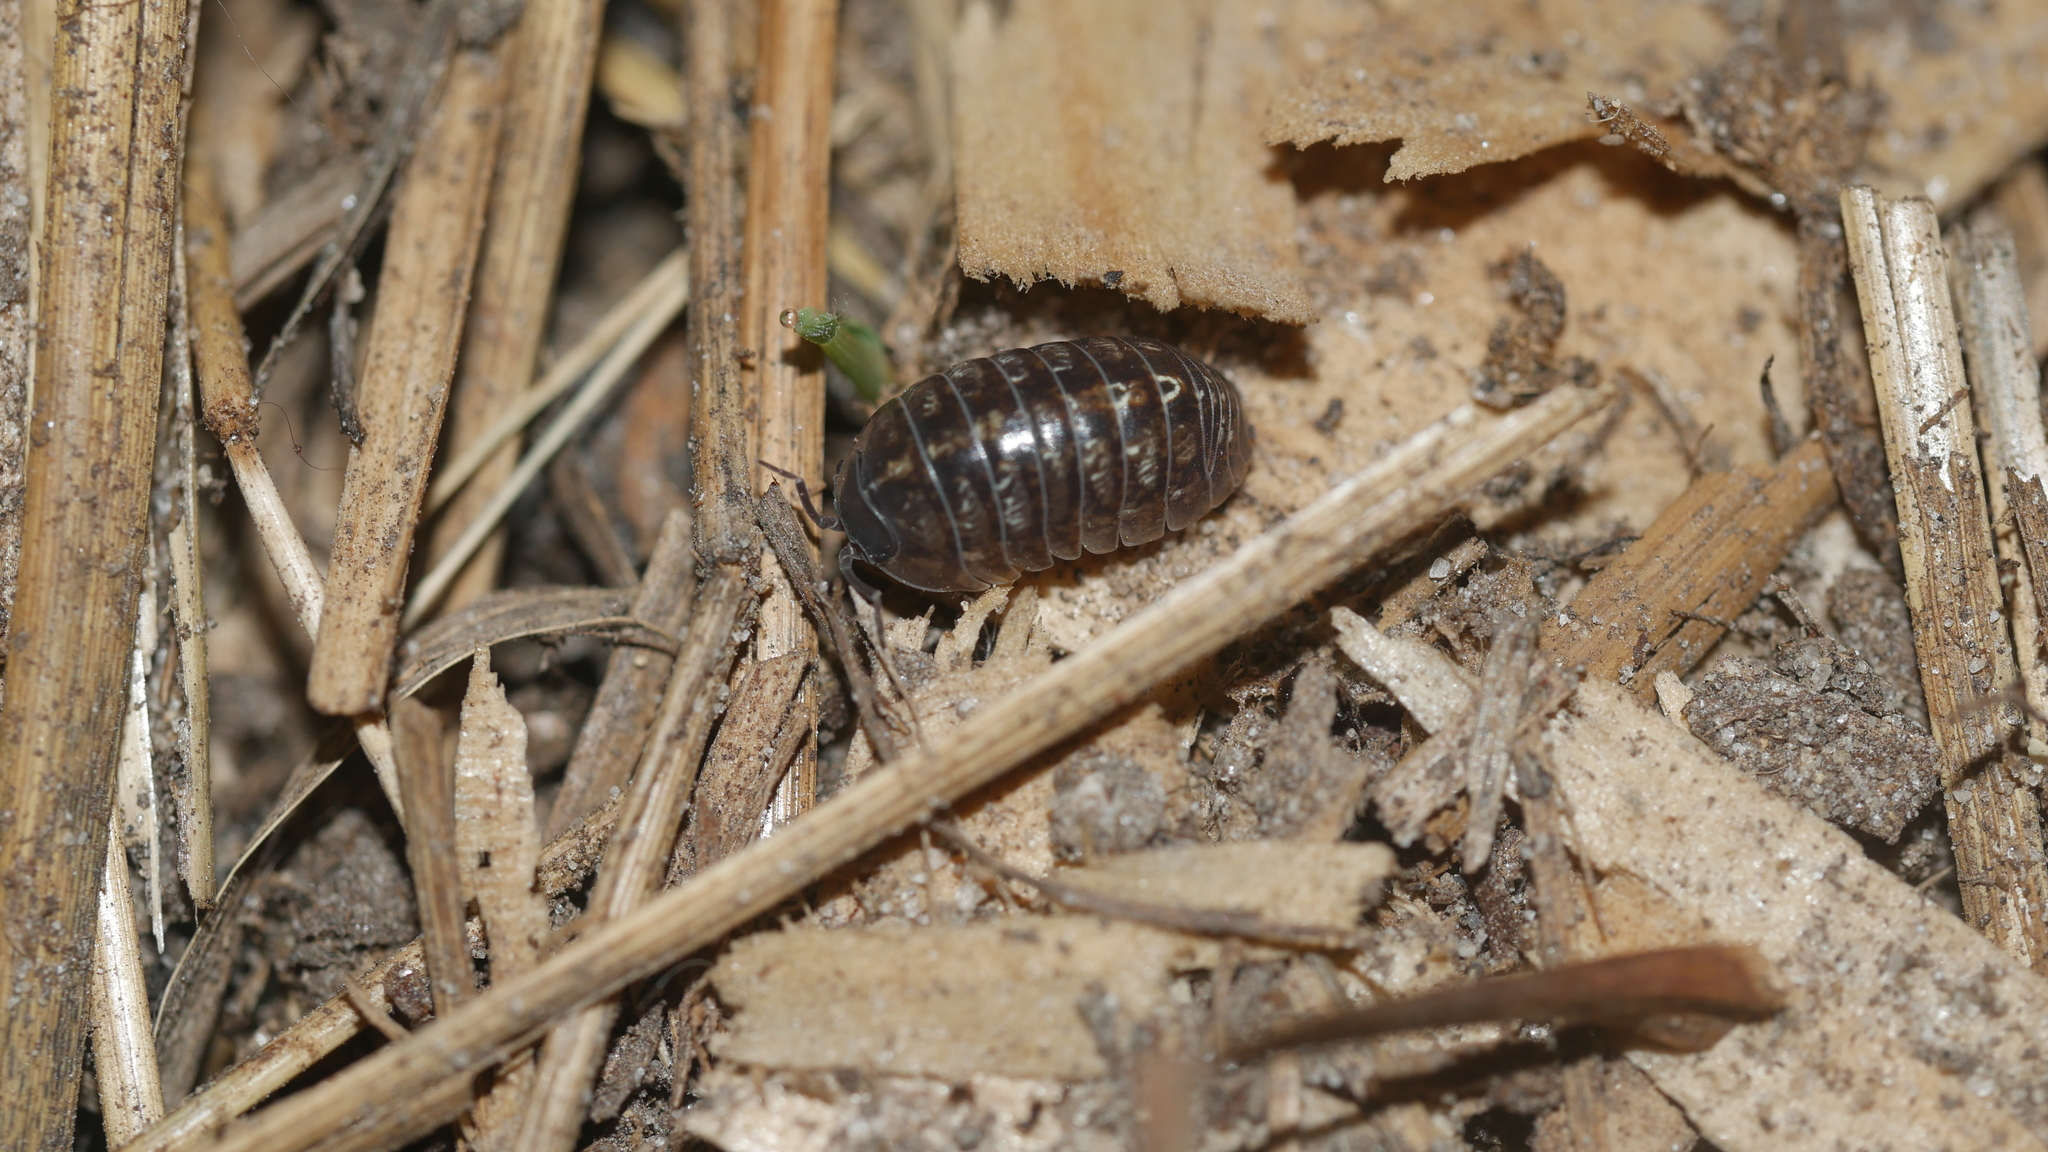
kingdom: Animalia
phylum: Arthropoda
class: Malacostraca
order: Isopoda
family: Armadillidiidae
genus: Armadillidium
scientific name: Armadillidium vulgare
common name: Common pill woodlouse
